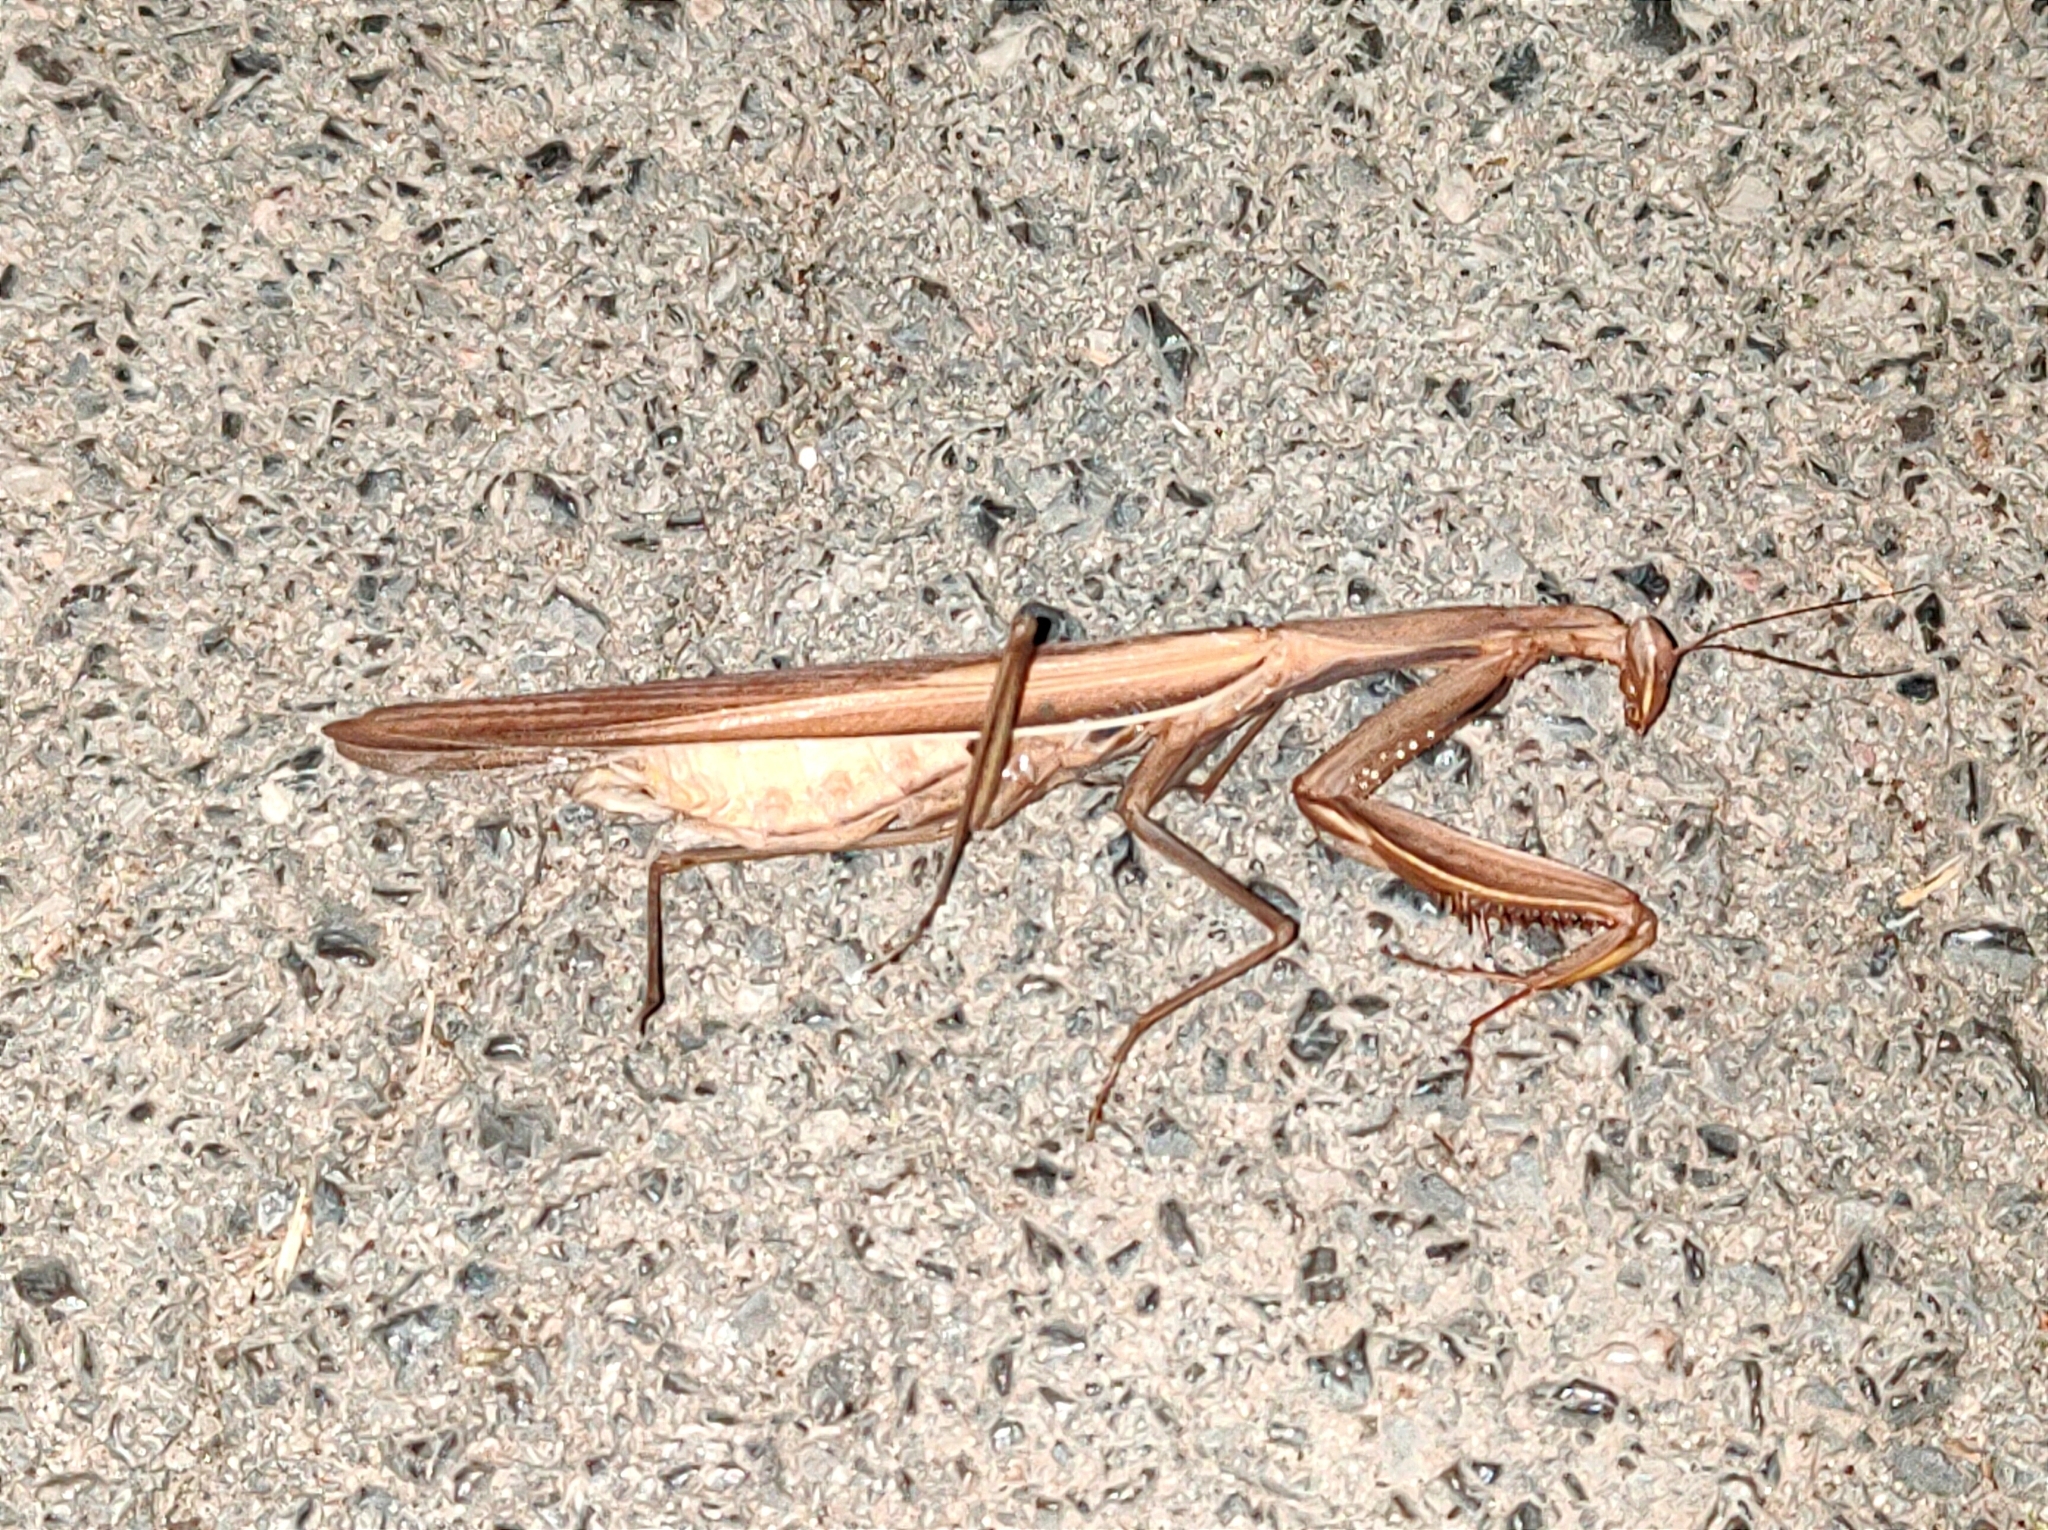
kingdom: Animalia
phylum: Arthropoda
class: Insecta
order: Mantodea
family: Mantidae
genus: Mantis
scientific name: Mantis religiosa
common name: Praying mantis
